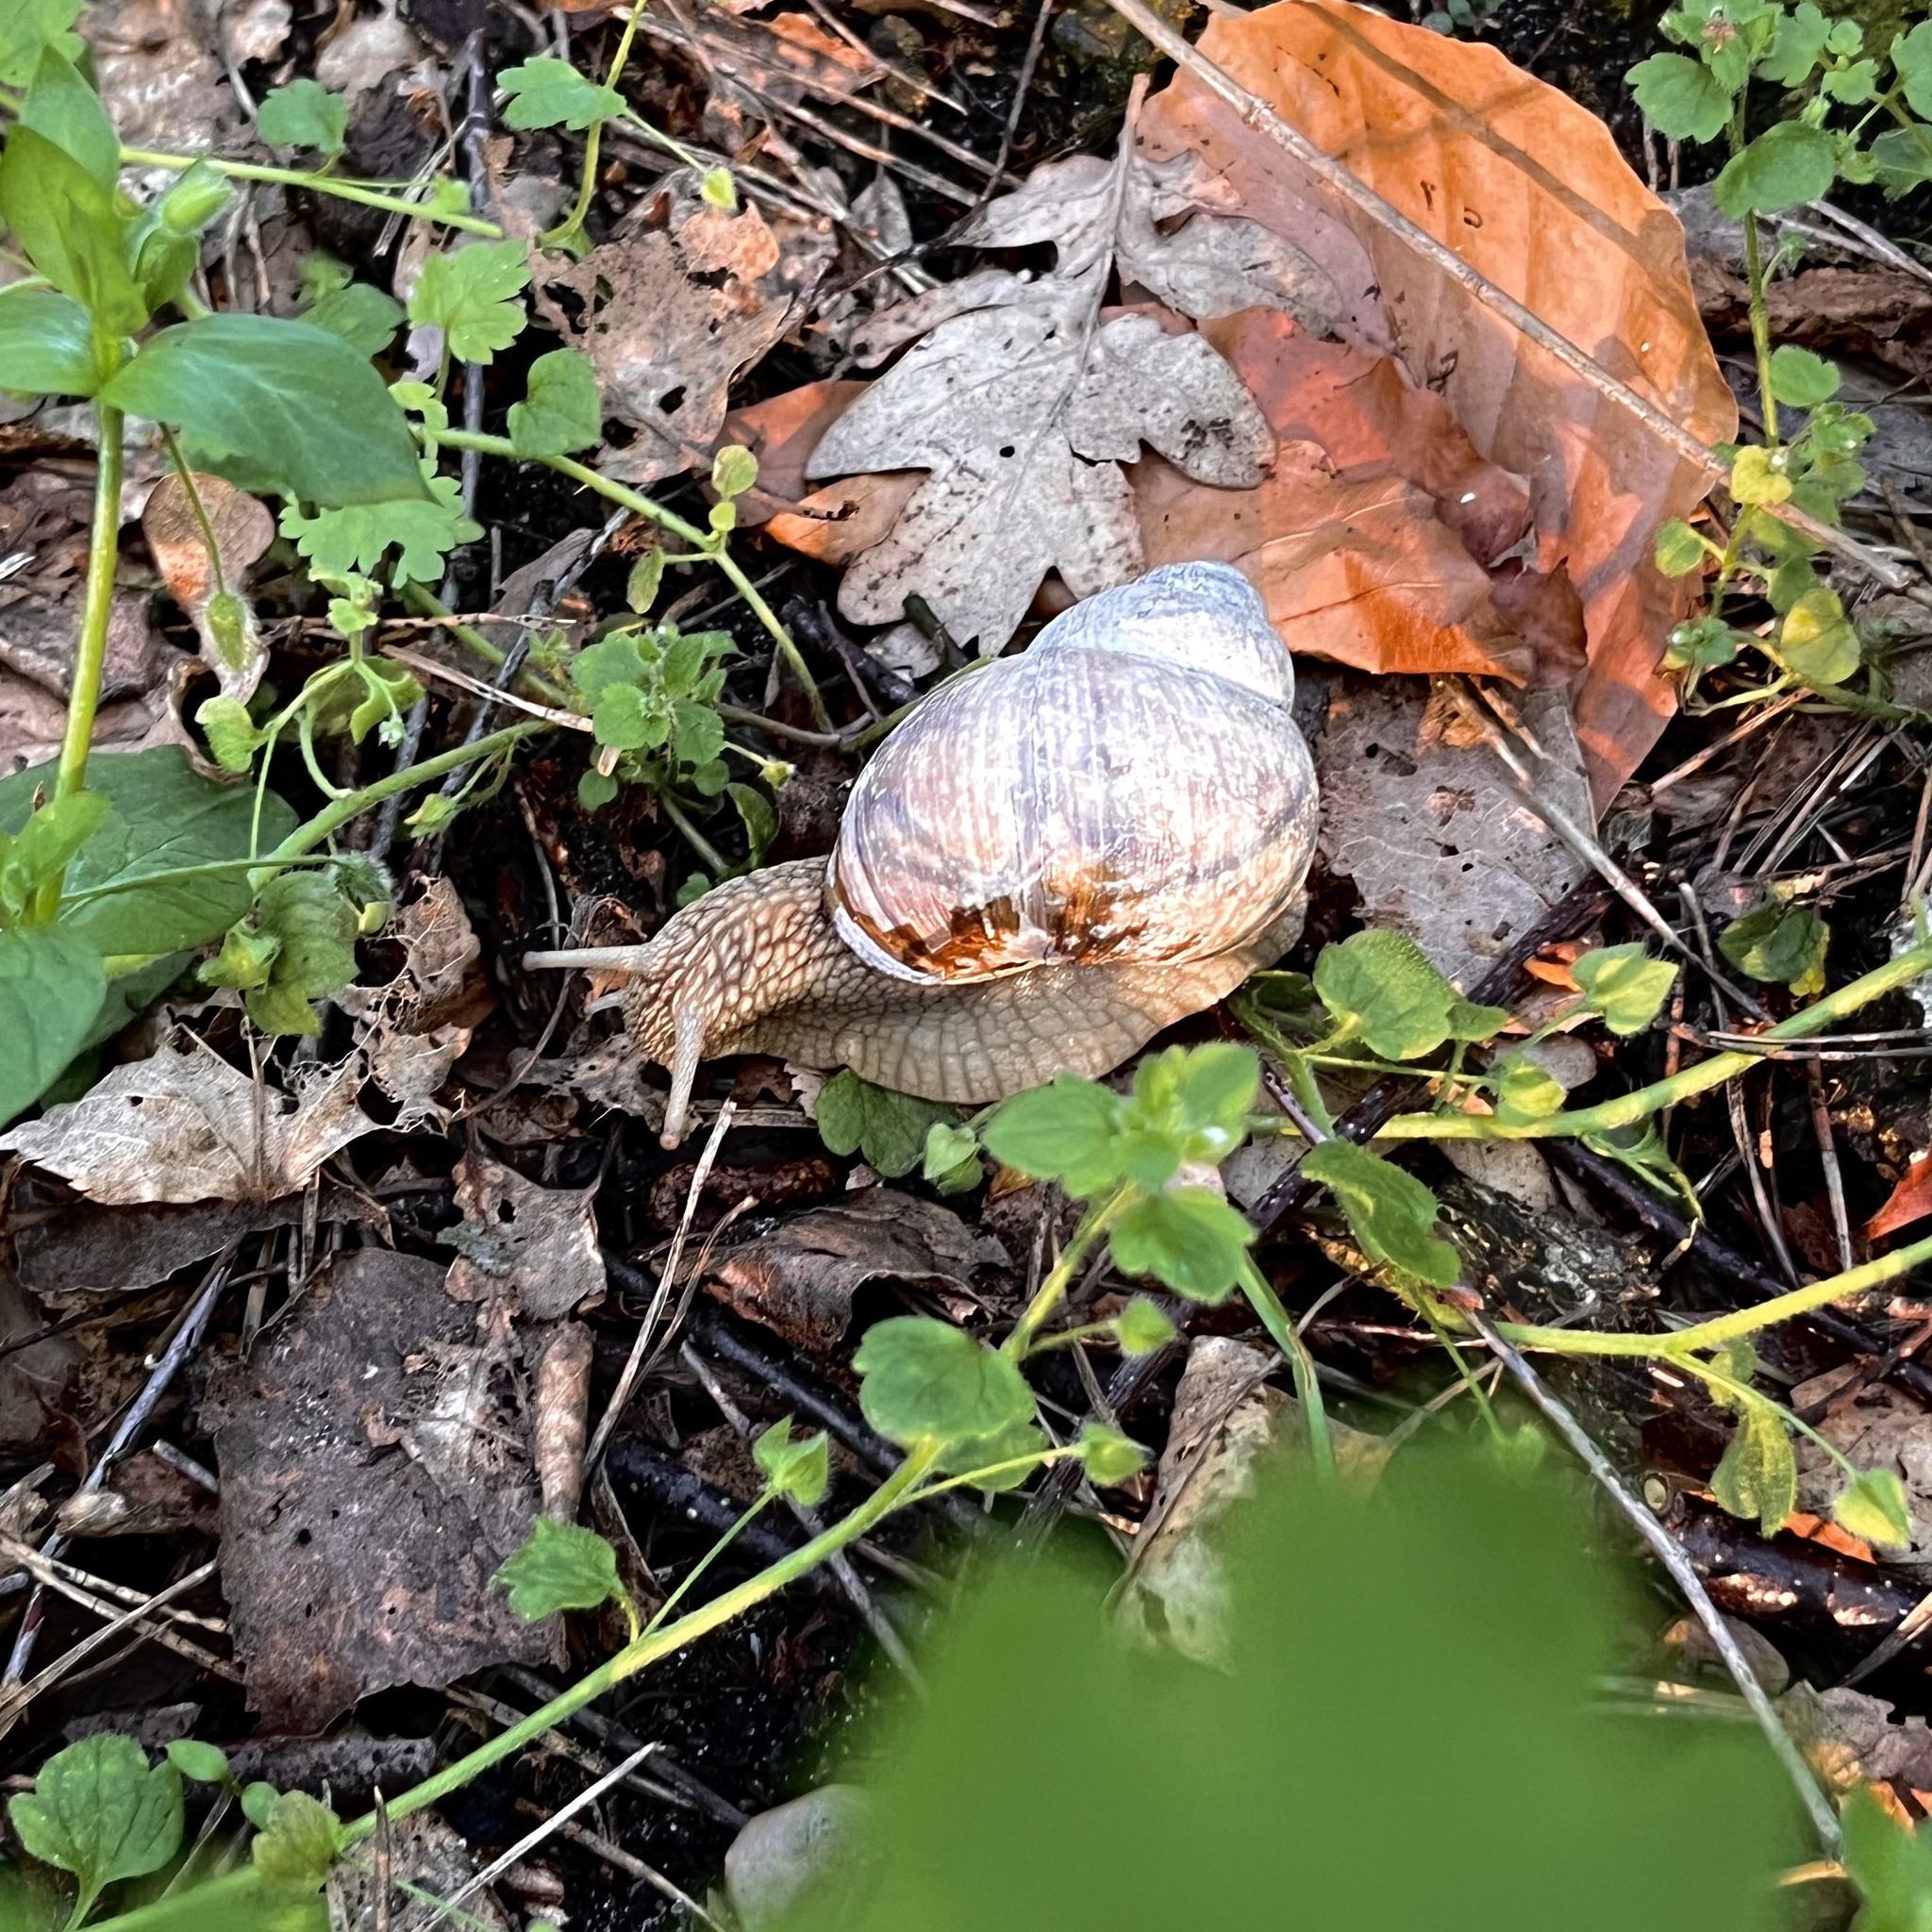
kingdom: Animalia
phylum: Mollusca
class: Gastropoda
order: Stylommatophora
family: Helicidae
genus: Helix
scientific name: Helix pomatia
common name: Roman snail
